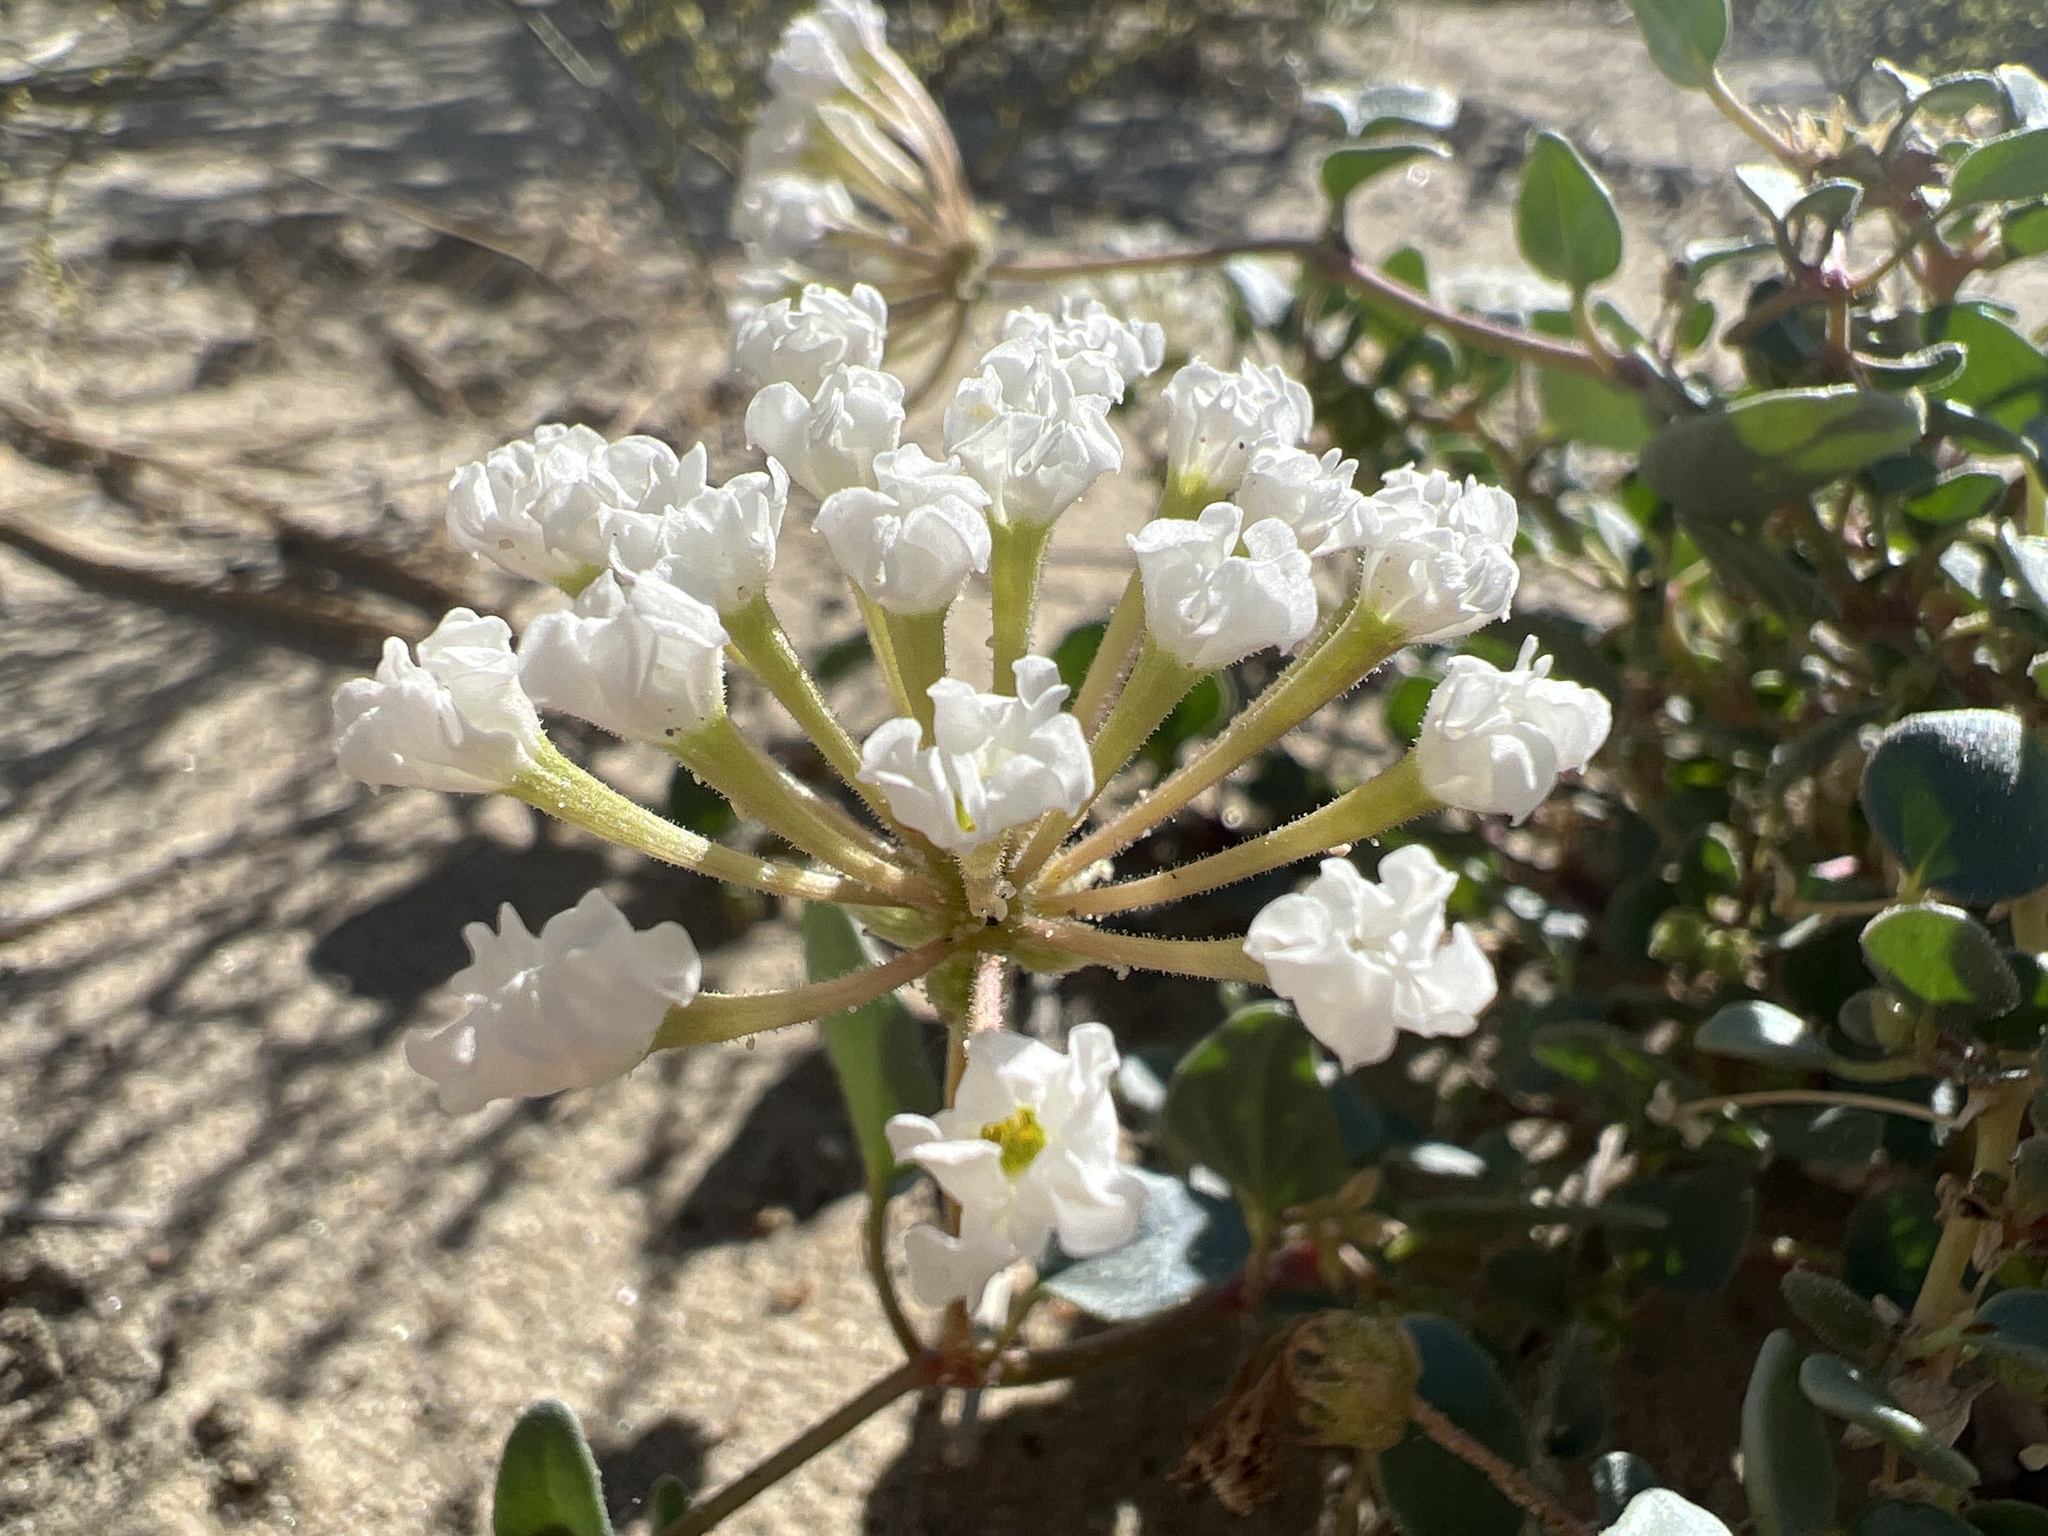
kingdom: Plantae
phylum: Tracheophyta
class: Magnoliopsida
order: Caryophyllales
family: Nyctaginaceae
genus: Abronia
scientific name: Abronia turbinata
